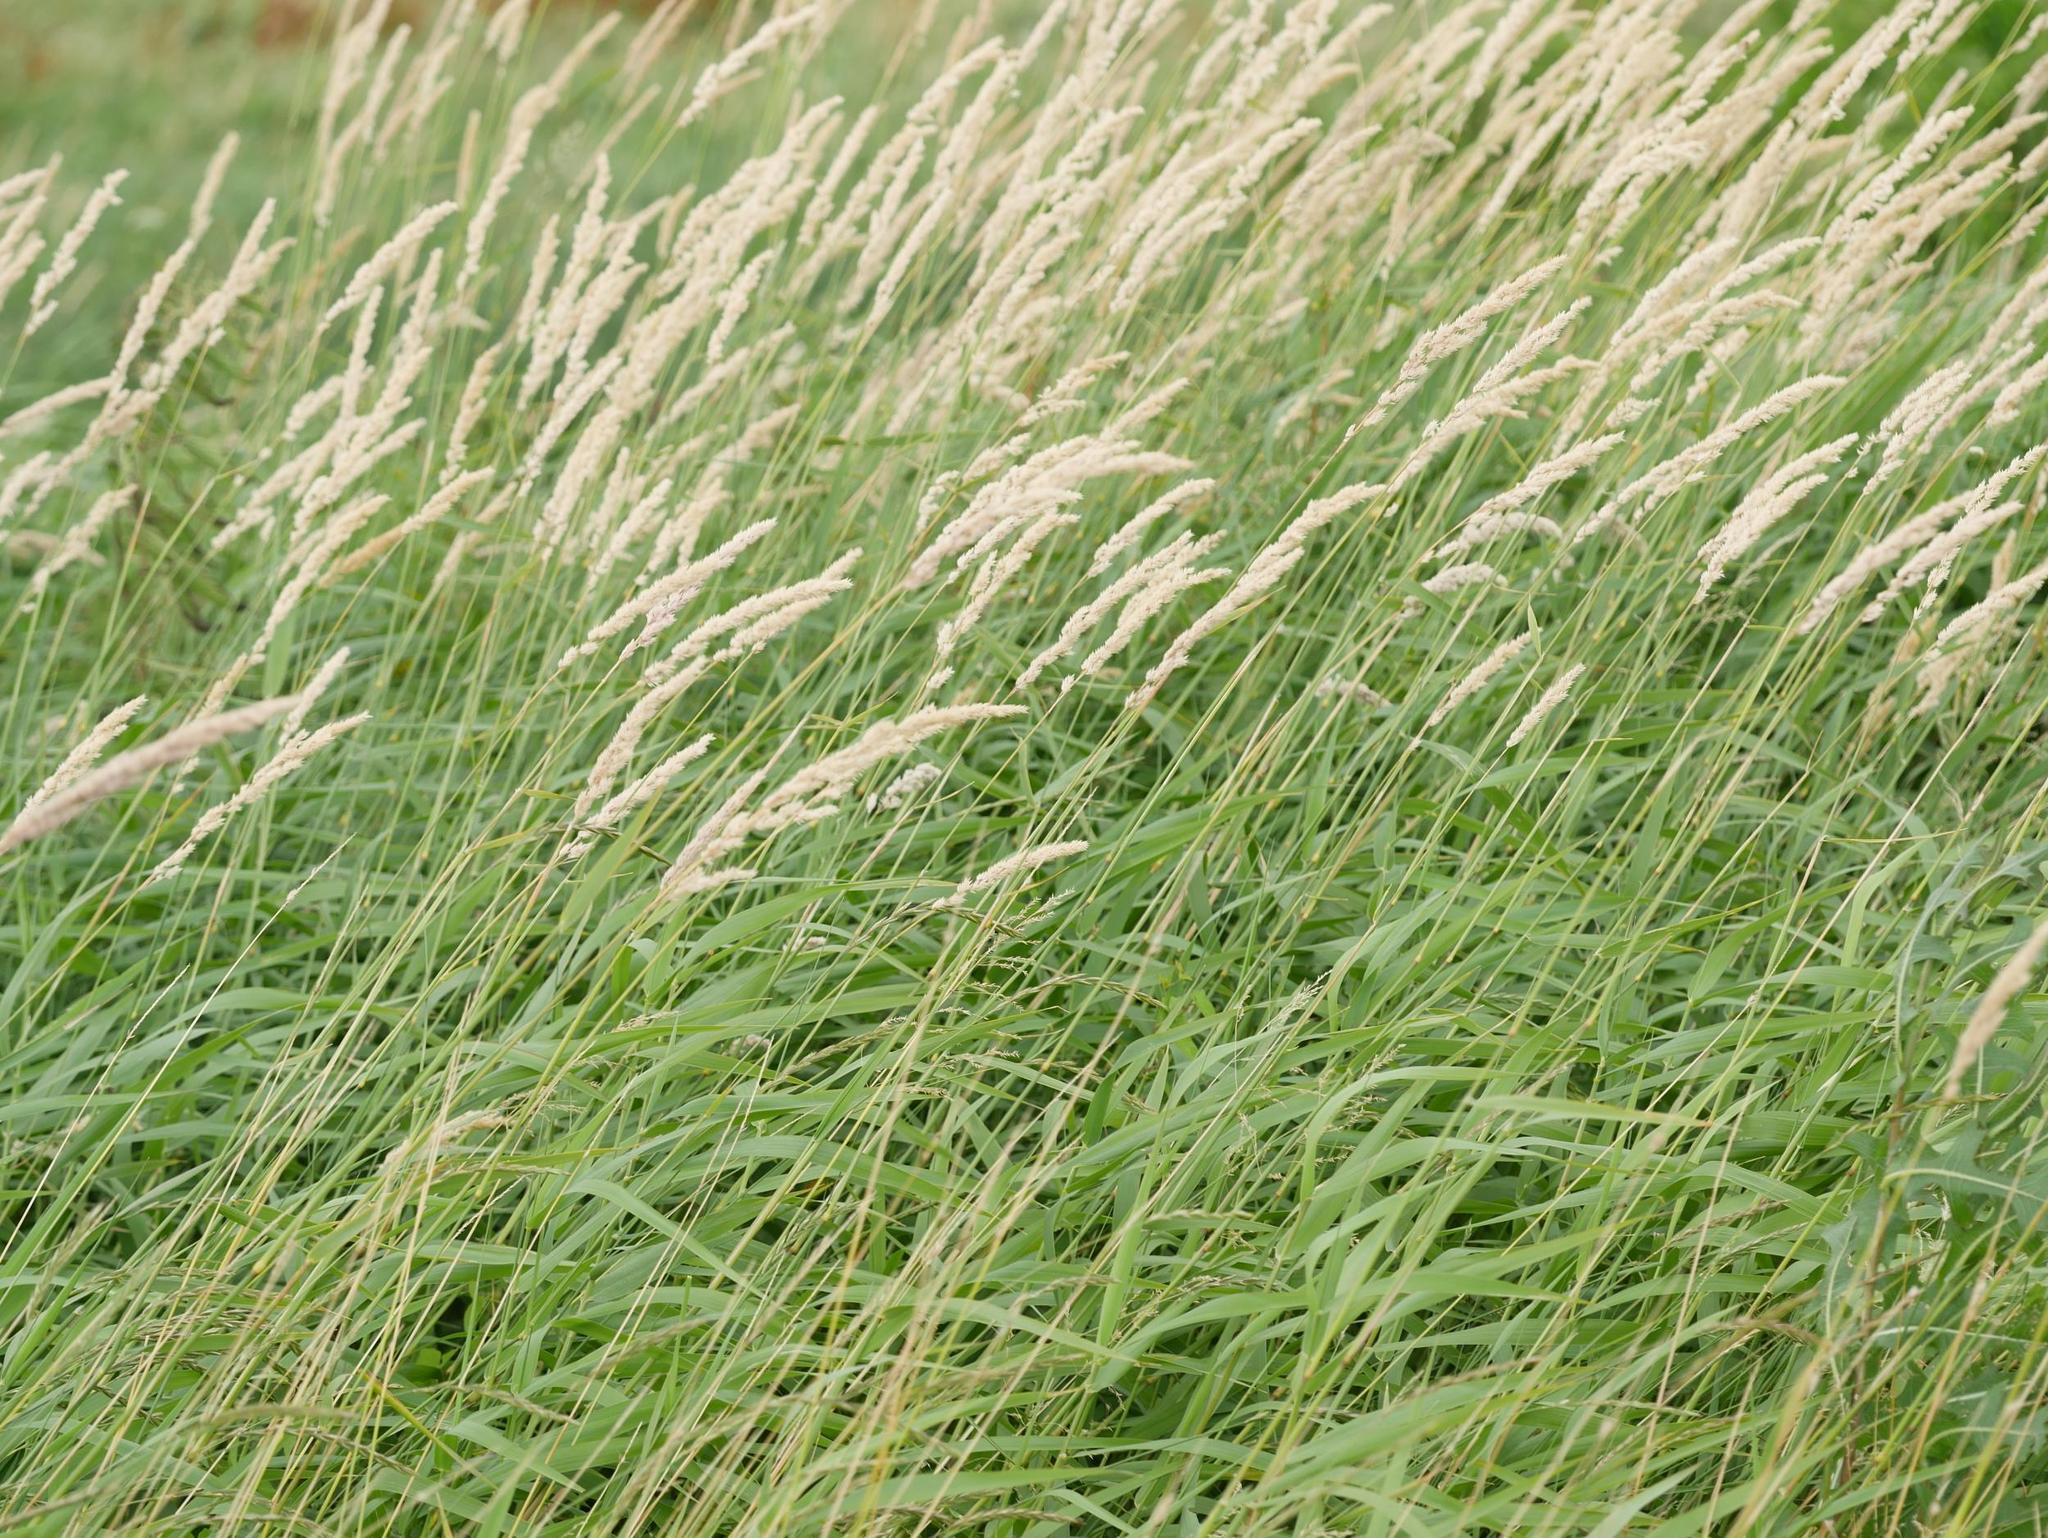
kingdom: Plantae
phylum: Tracheophyta
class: Liliopsida
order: Poales
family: Poaceae
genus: Phalaris
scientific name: Phalaris arundinacea
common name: Reed canary-grass
